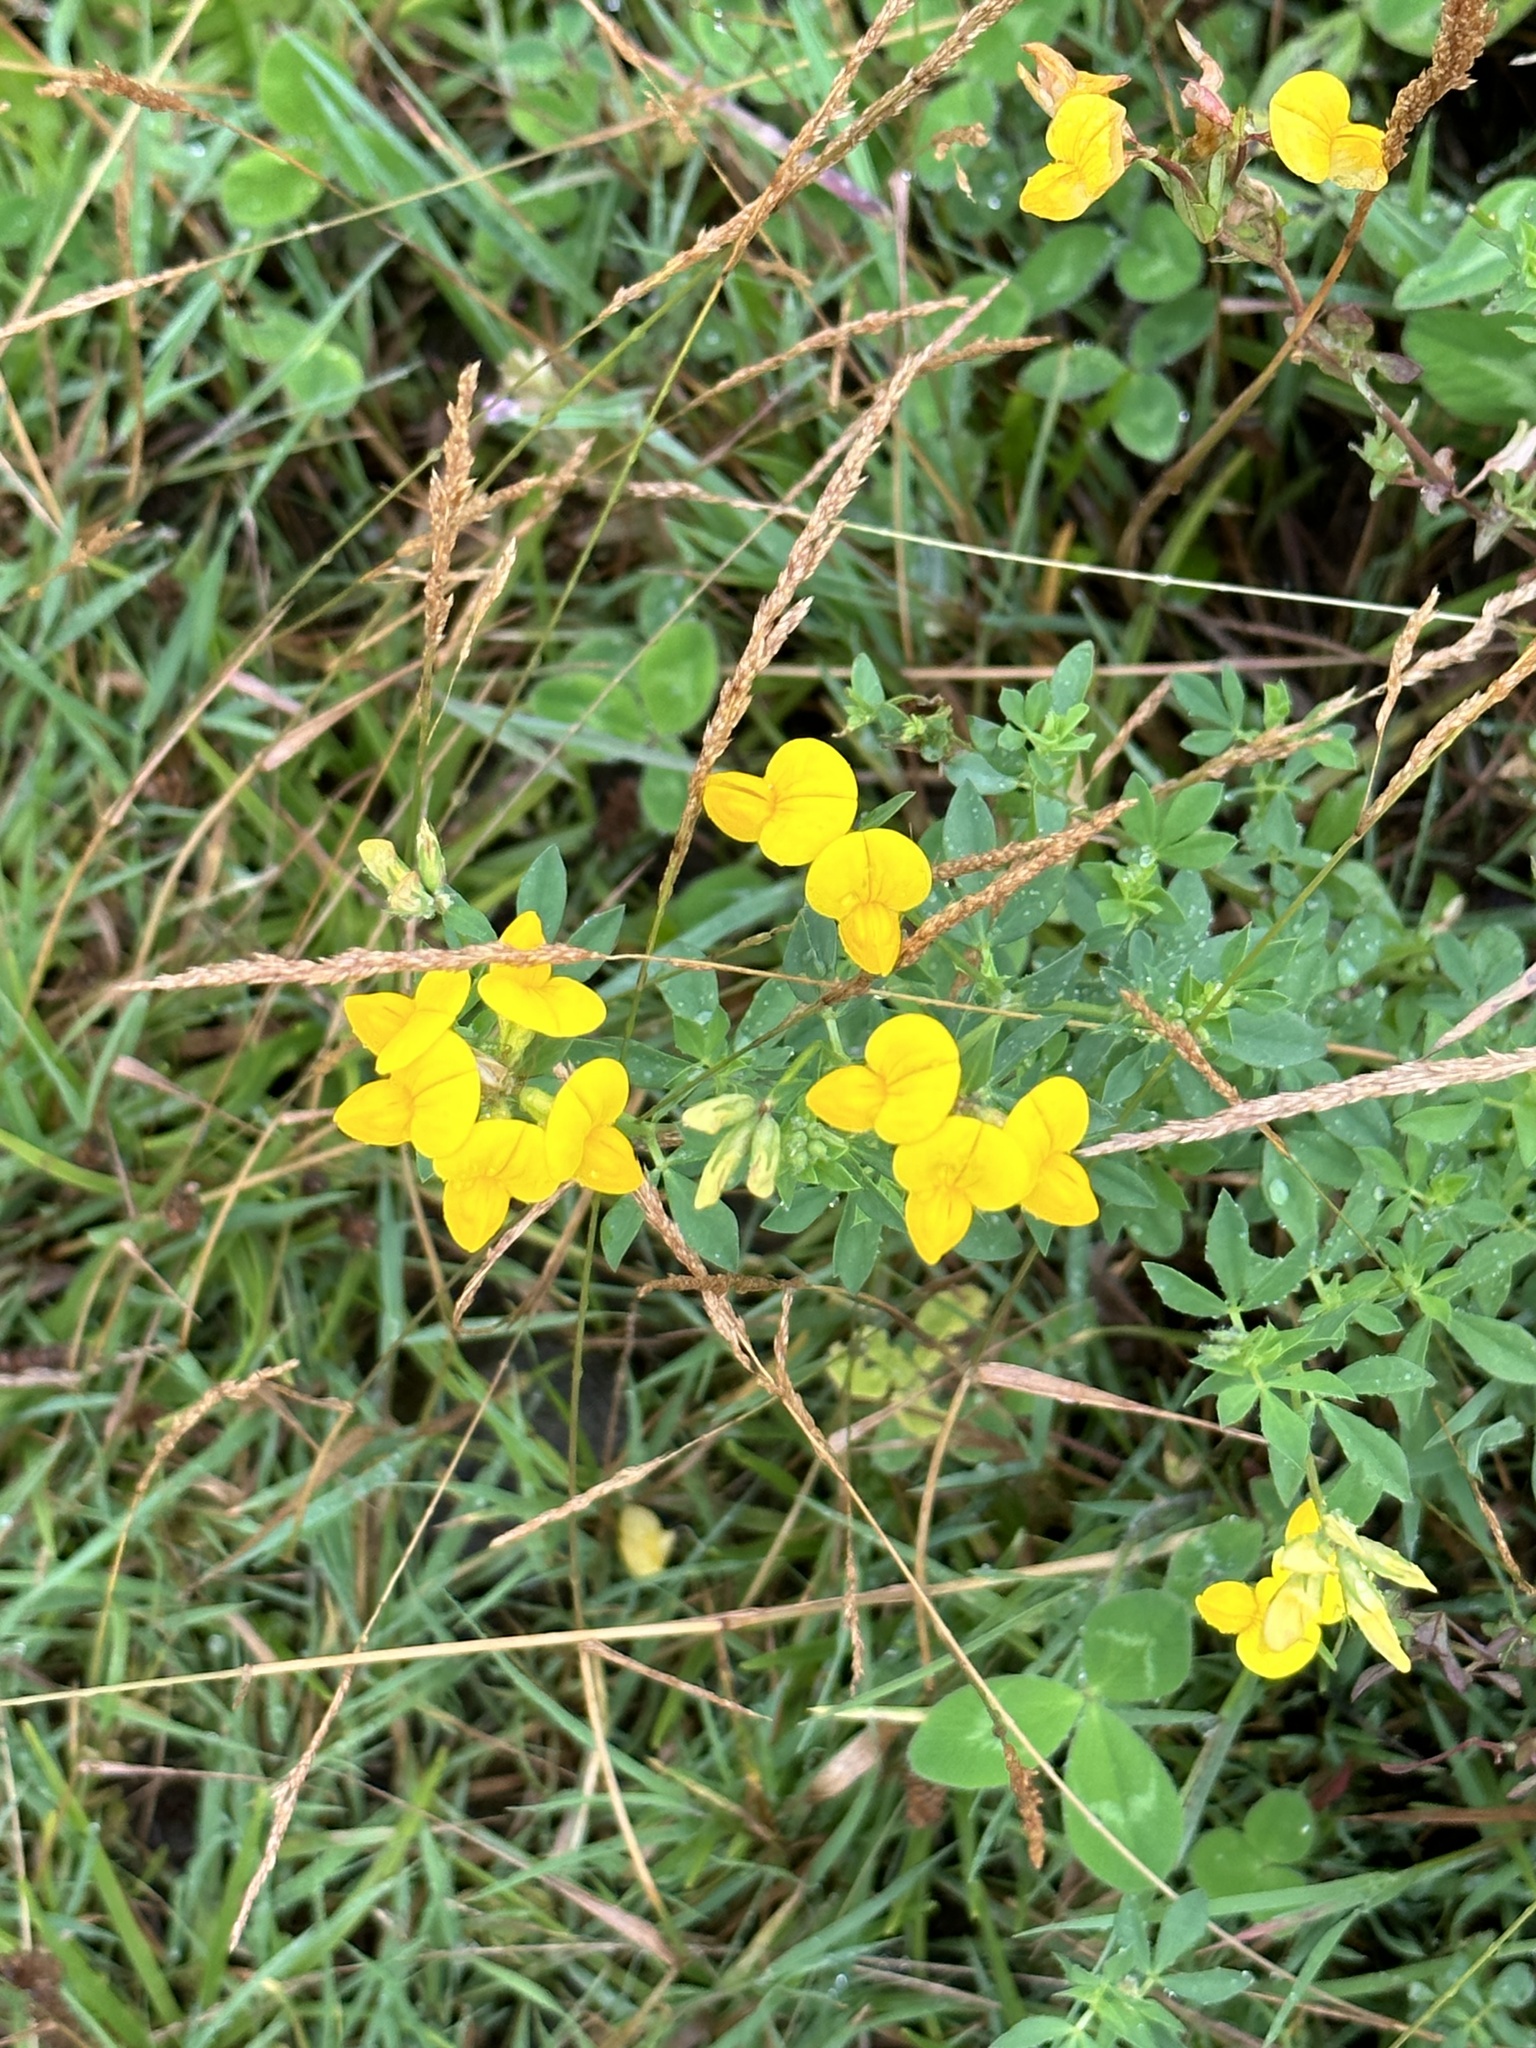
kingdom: Plantae
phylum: Tracheophyta
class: Magnoliopsida
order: Fabales
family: Fabaceae
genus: Lotus
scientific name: Lotus corniculatus
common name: Common bird's-foot-trefoil
